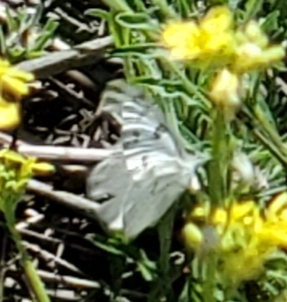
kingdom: Animalia
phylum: Arthropoda
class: Insecta
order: Lepidoptera
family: Pieridae
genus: Pontia
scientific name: Pontia protodice
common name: Checkered white
